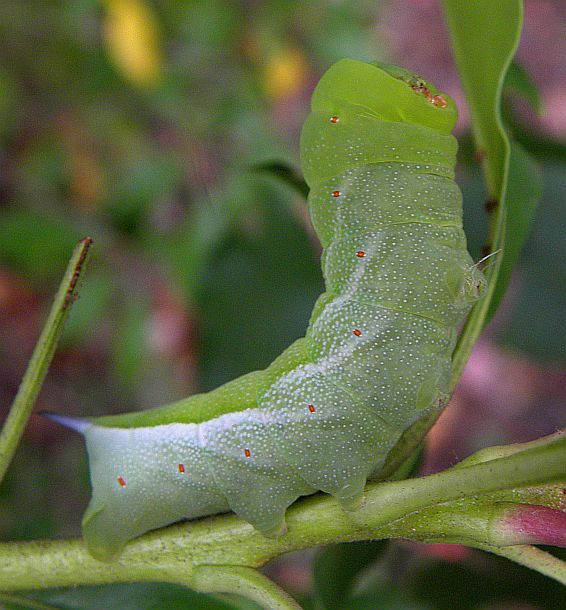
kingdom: Animalia
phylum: Arthropoda
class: Insecta
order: Lepidoptera
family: Sphingidae
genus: Darapsa
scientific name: Darapsa choerilus
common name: Azalea sphinx
